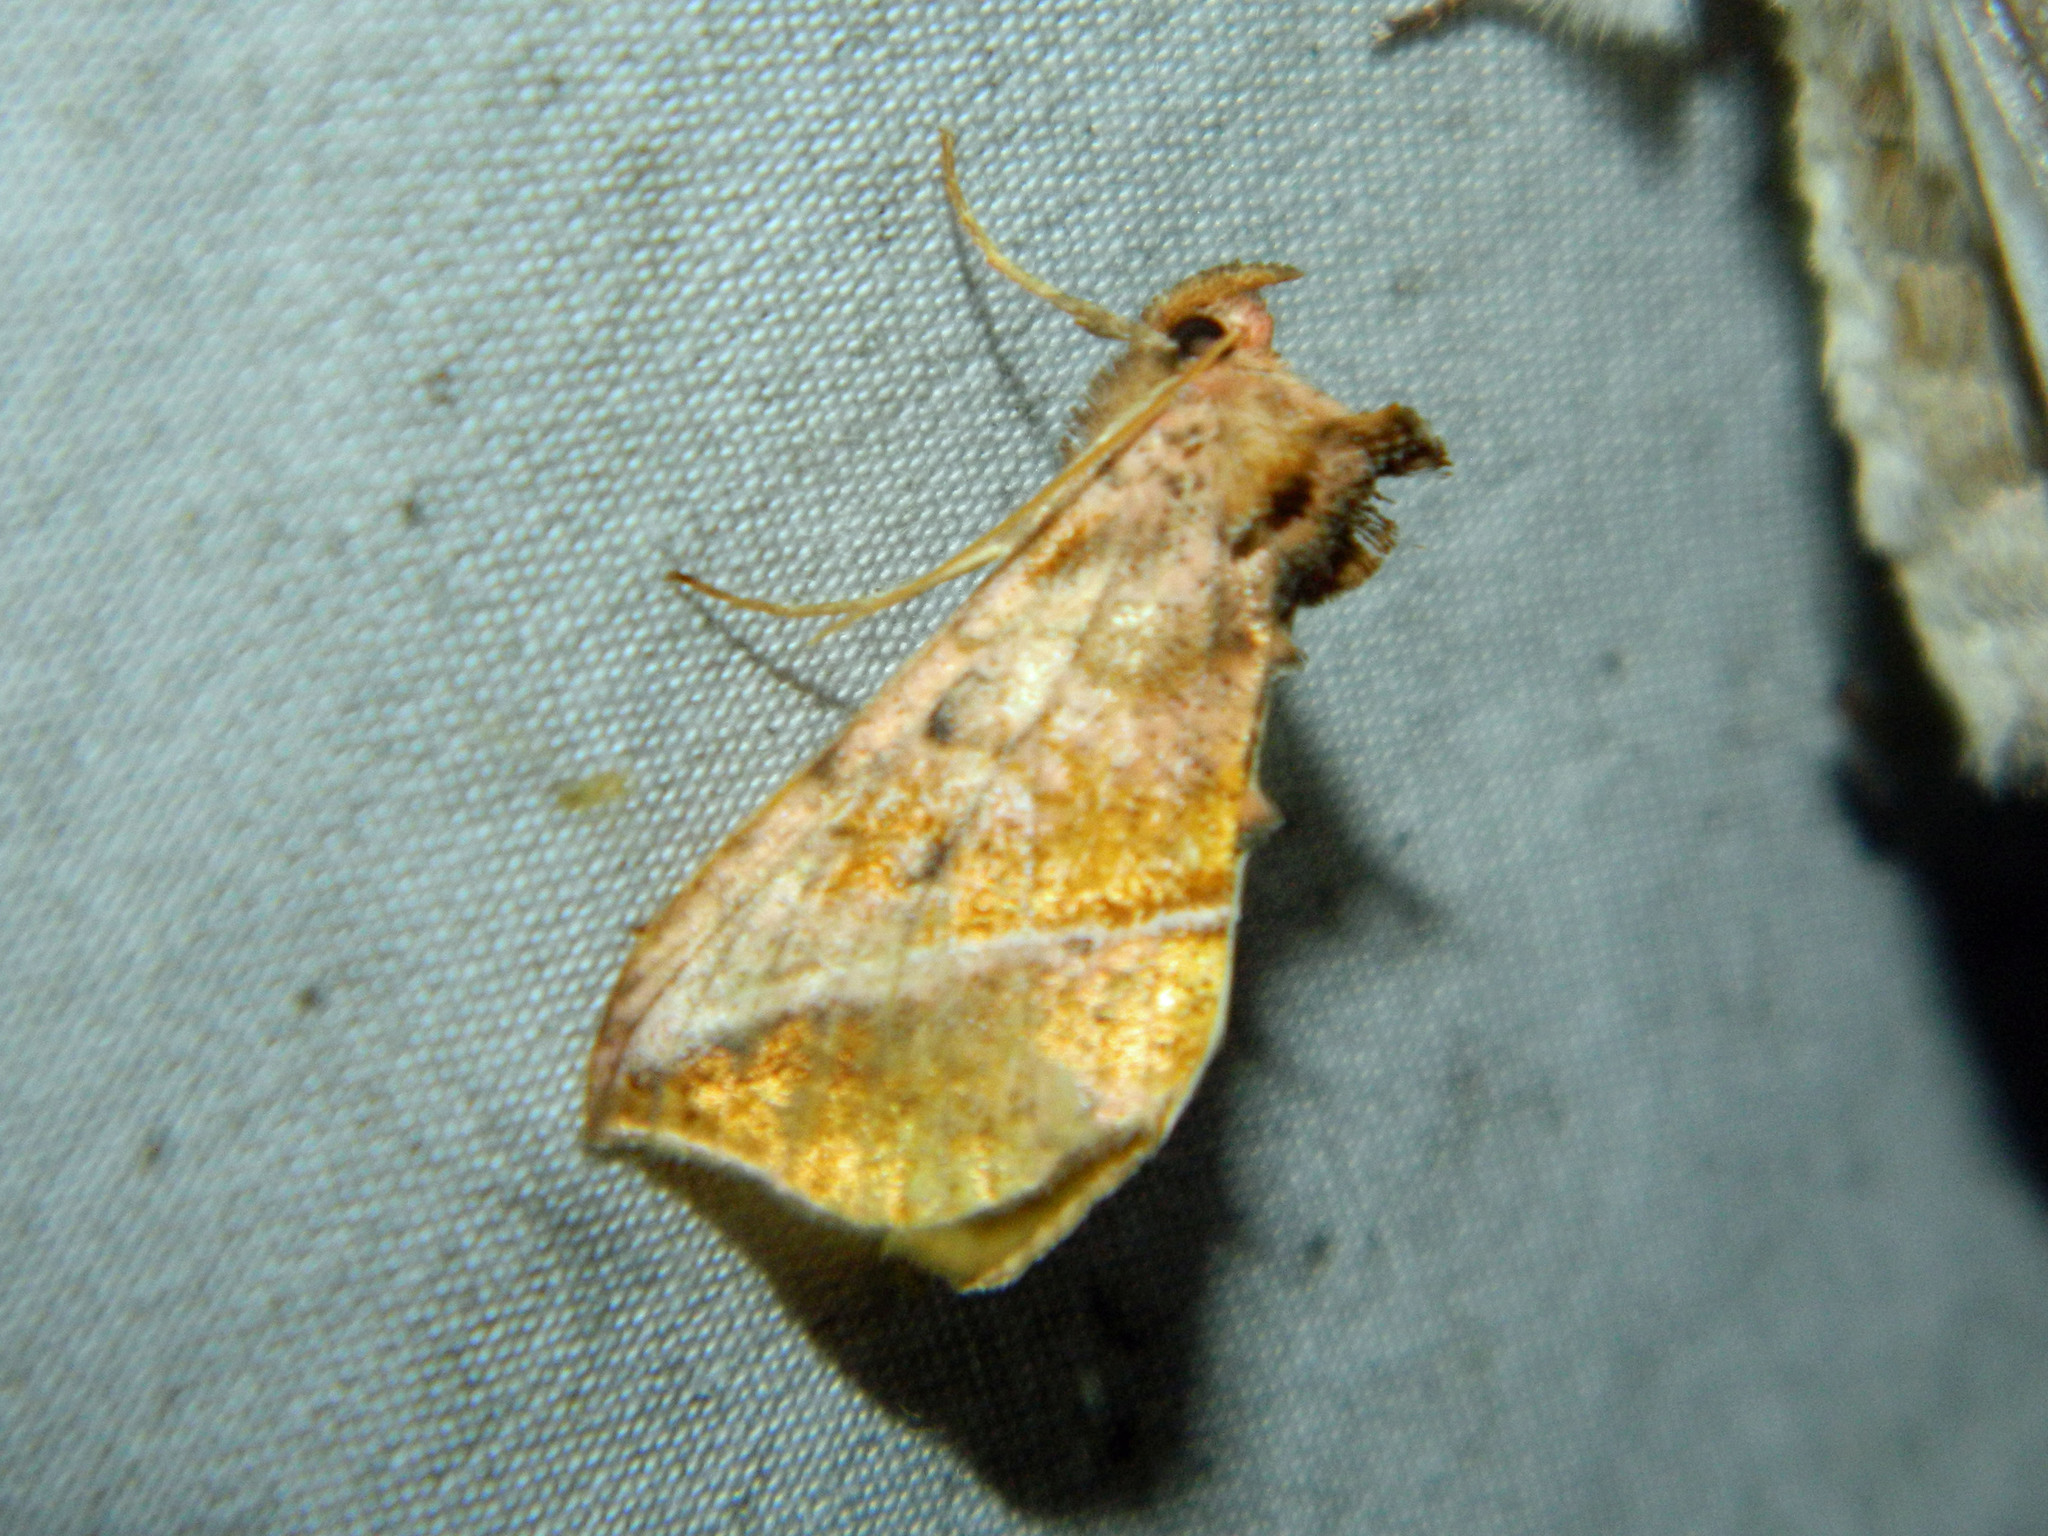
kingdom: Animalia
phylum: Arthropoda
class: Insecta
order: Lepidoptera
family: Noctuidae
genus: Pseudeva
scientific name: Pseudeva purpurigera
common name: Straight-lined looper moth
